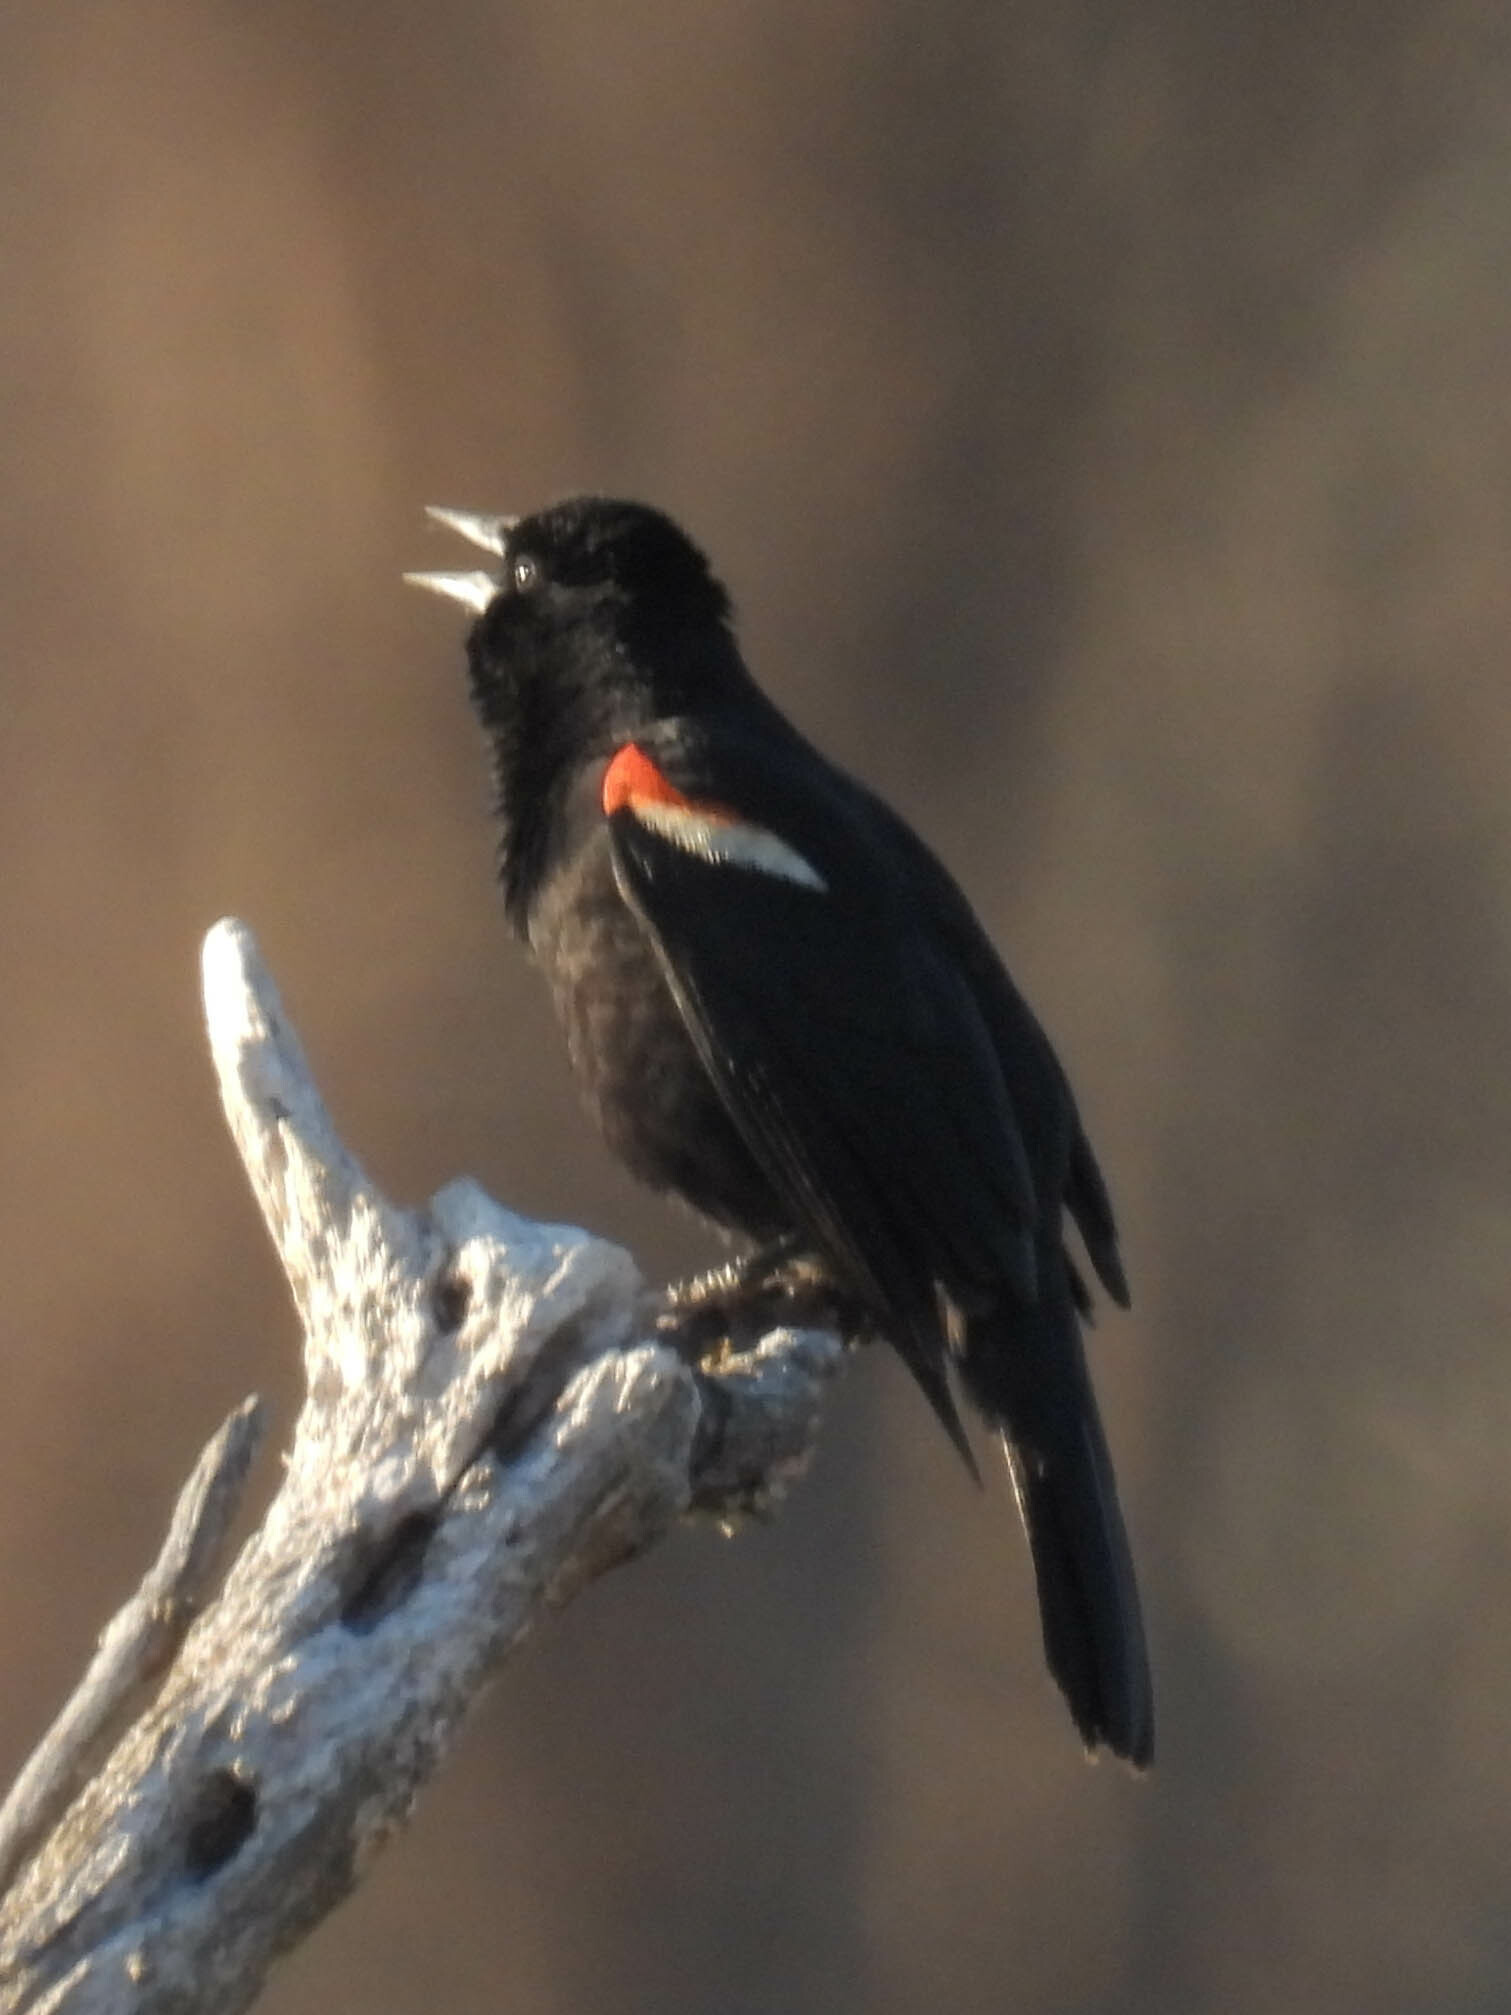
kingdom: Animalia
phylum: Chordata
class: Aves
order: Passeriformes
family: Icteridae
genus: Agelaius
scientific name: Agelaius phoeniceus
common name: Red-winged blackbird
